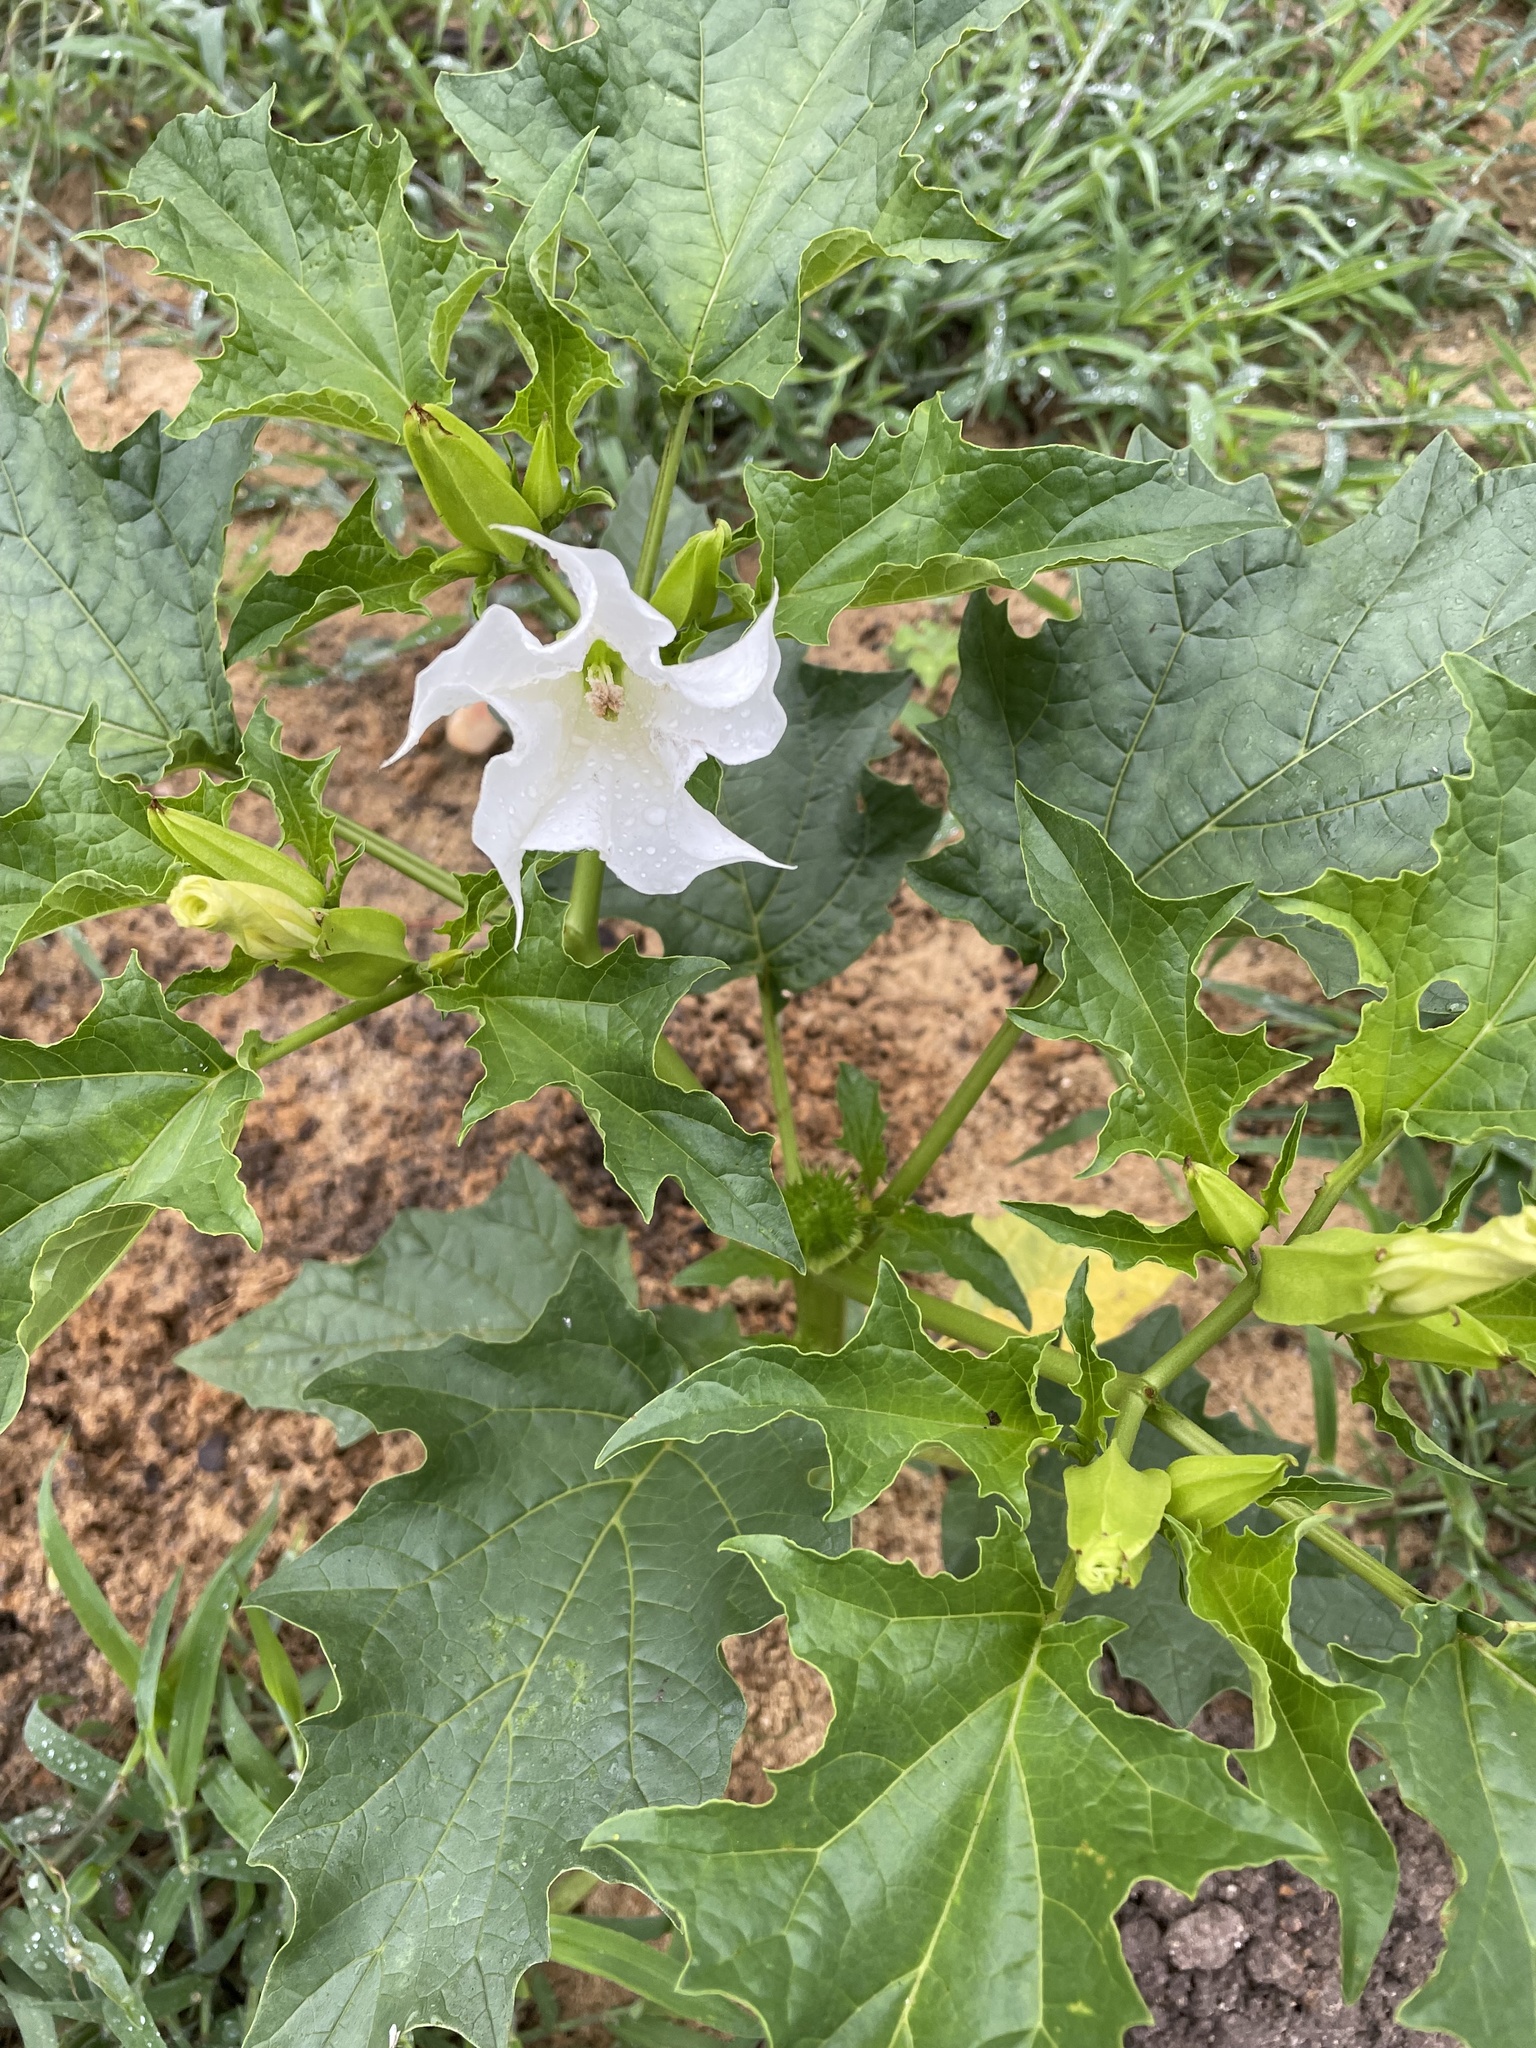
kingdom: Plantae
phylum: Tracheophyta
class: Magnoliopsida
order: Solanales
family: Solanaceae
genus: Datura
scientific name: Datura stramonium
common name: Thorn-apple
